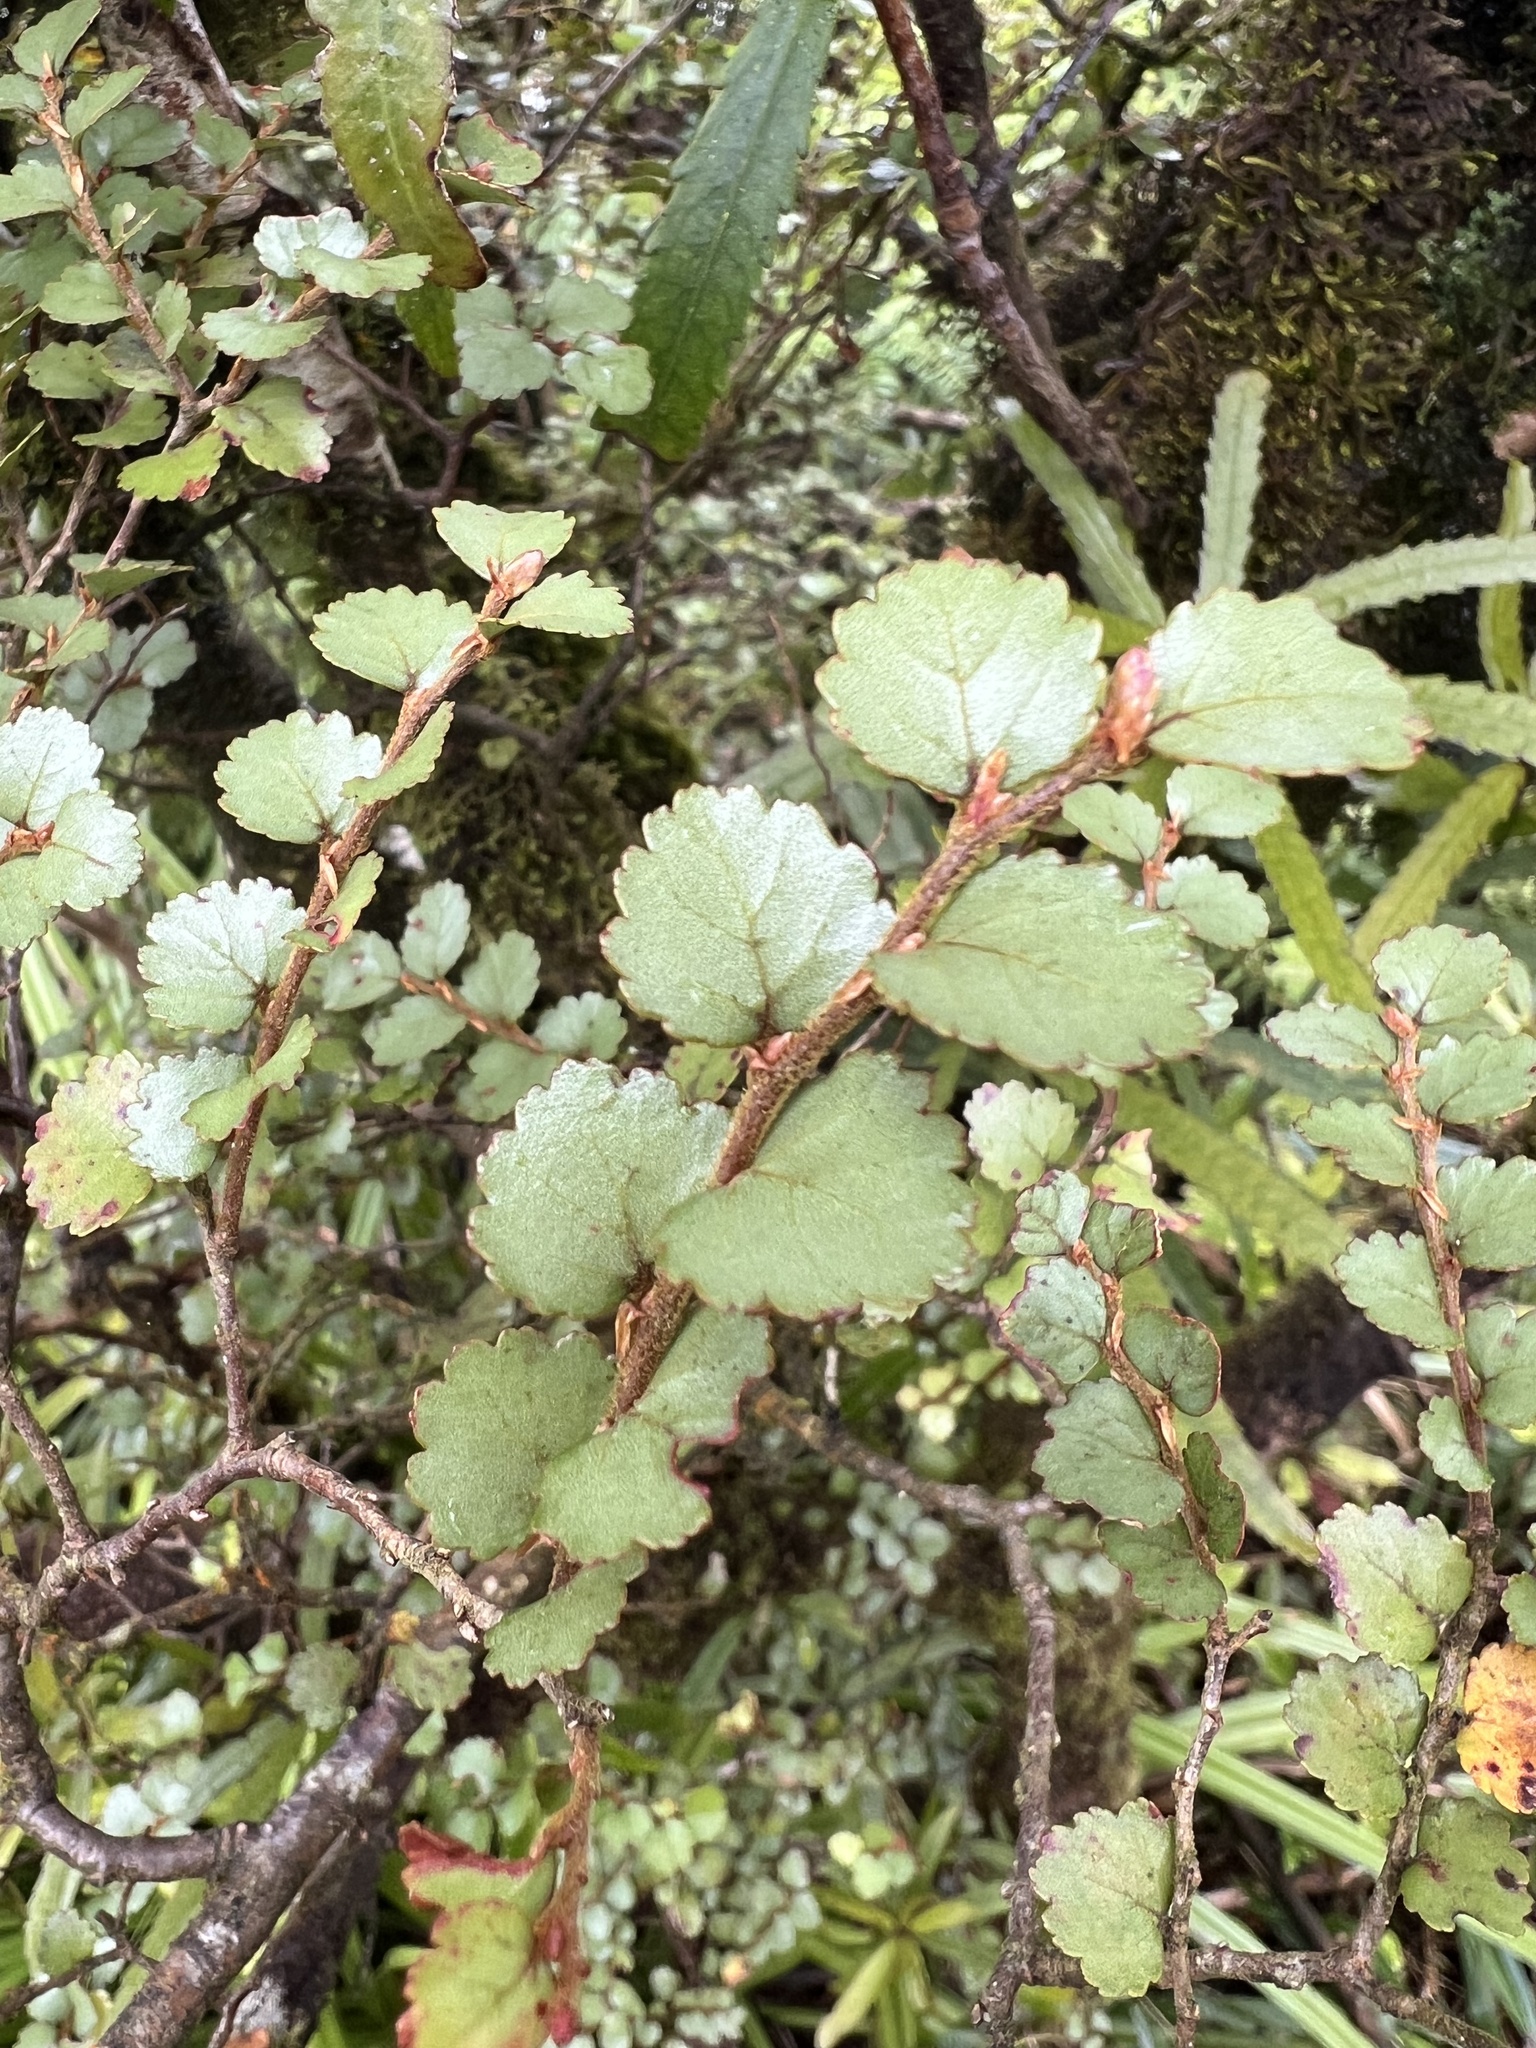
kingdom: Plantae
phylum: Tracheophyta
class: Magnoliopsida
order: Fagales
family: Nothofagaceae
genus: Nothofagus
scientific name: Nothofagus menziesii
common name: Silver beech
